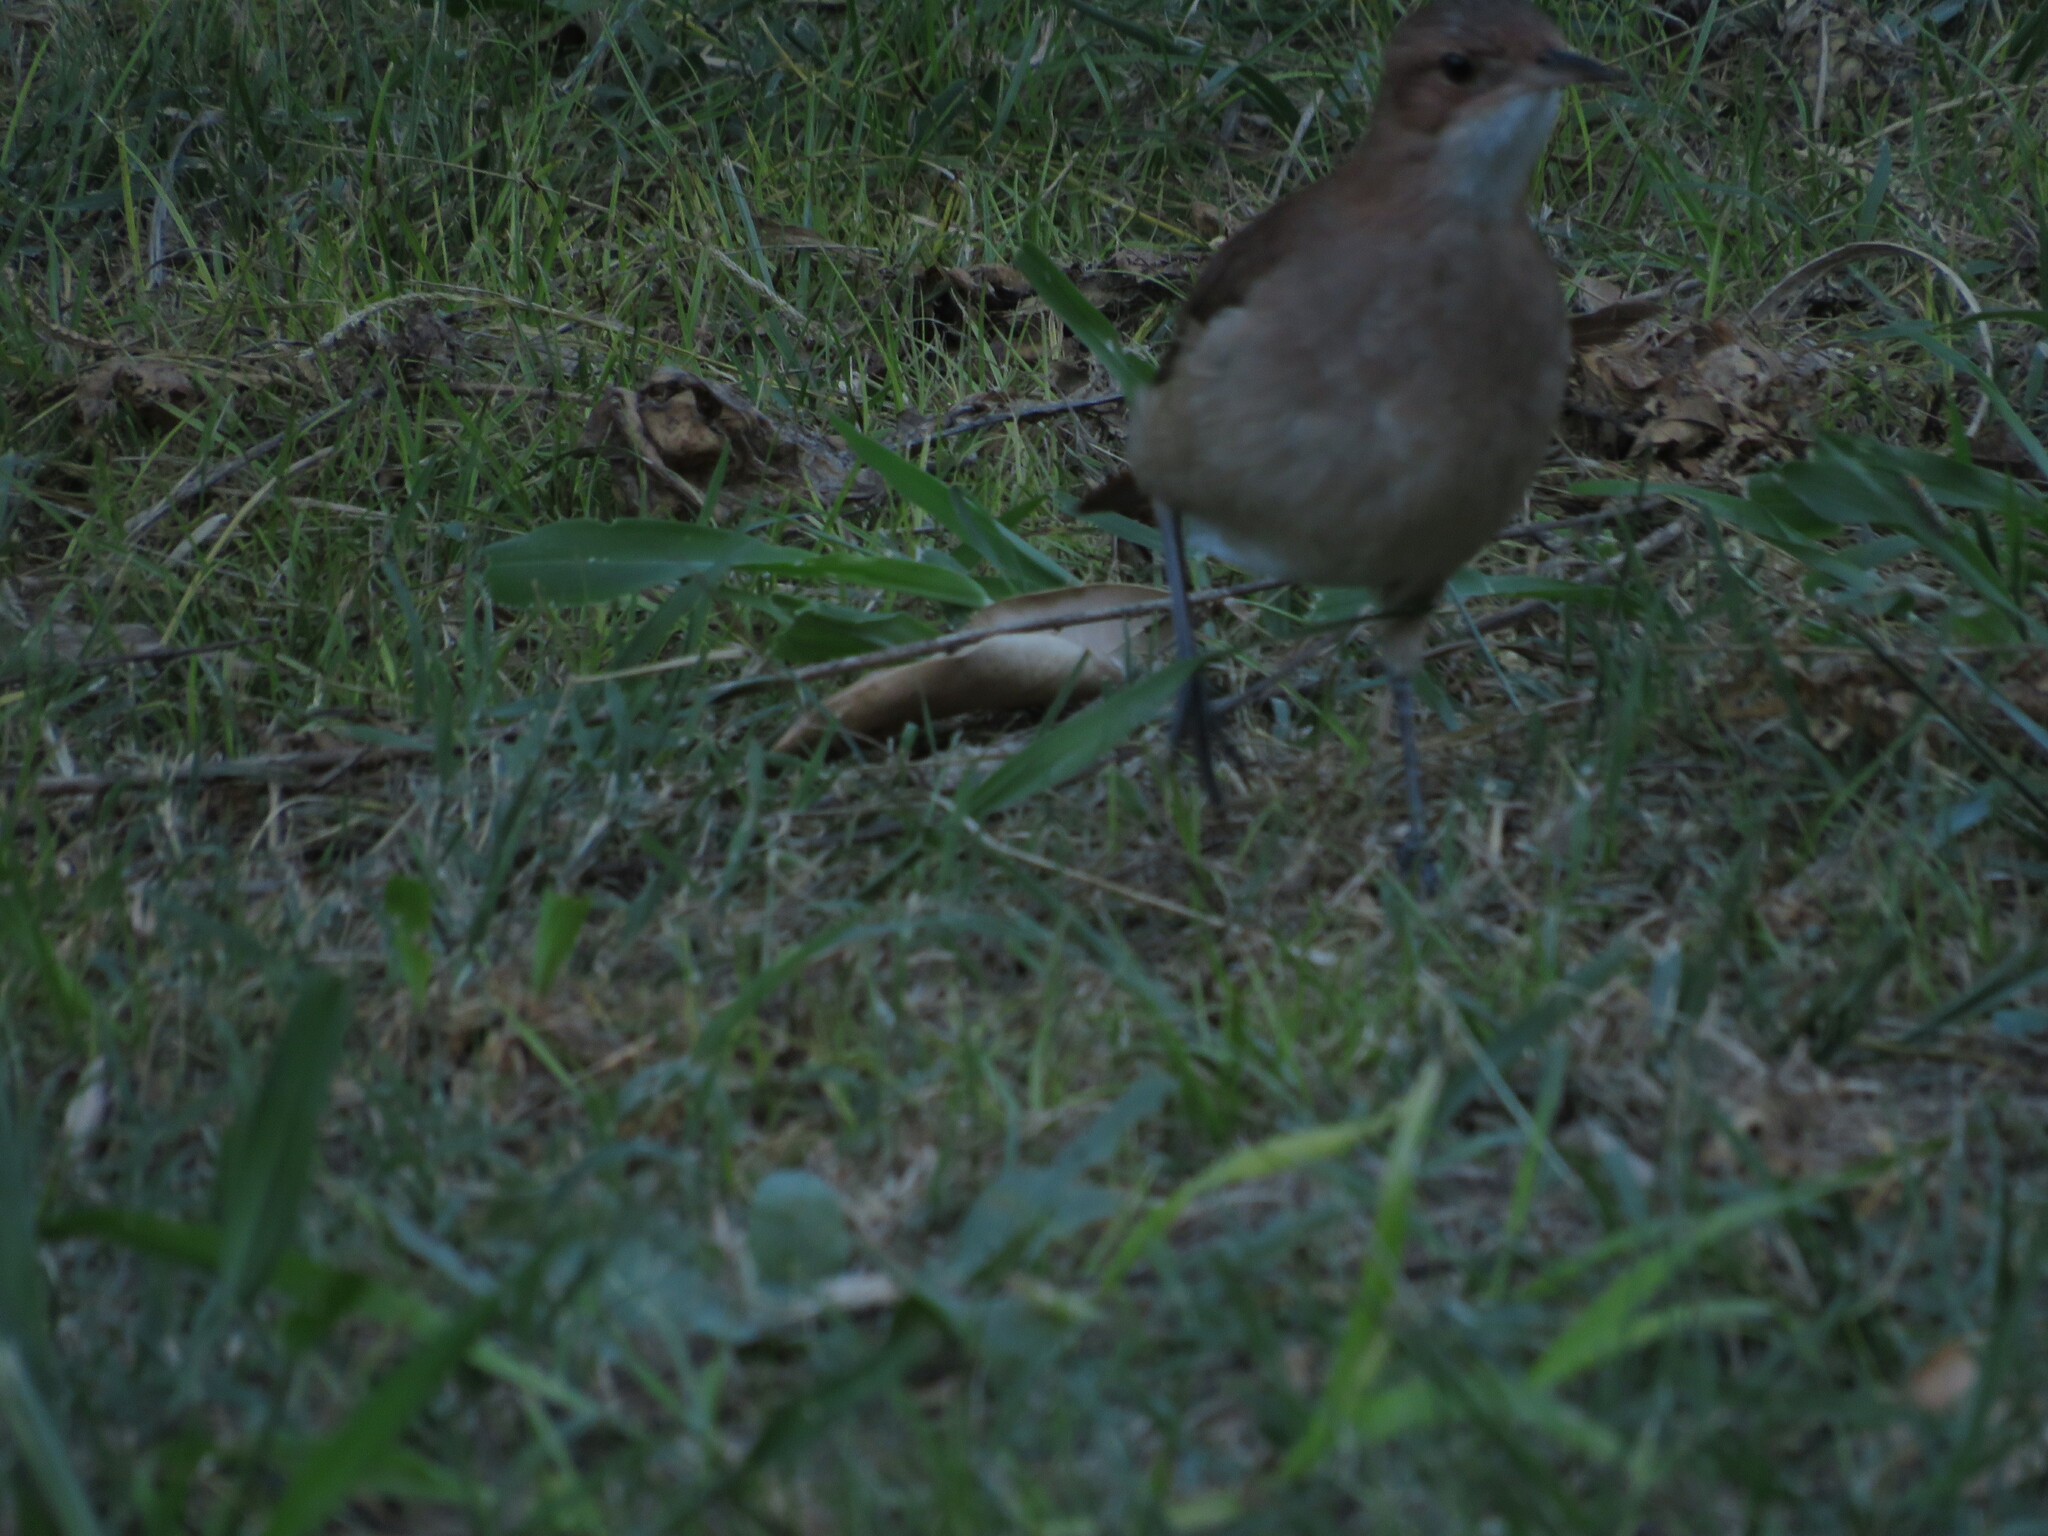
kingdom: Animalia
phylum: Chordata
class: Aves
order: Passeriformes
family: Furnariidae
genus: Furnarius
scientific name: Furnarius rufus
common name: Rufous hornero
